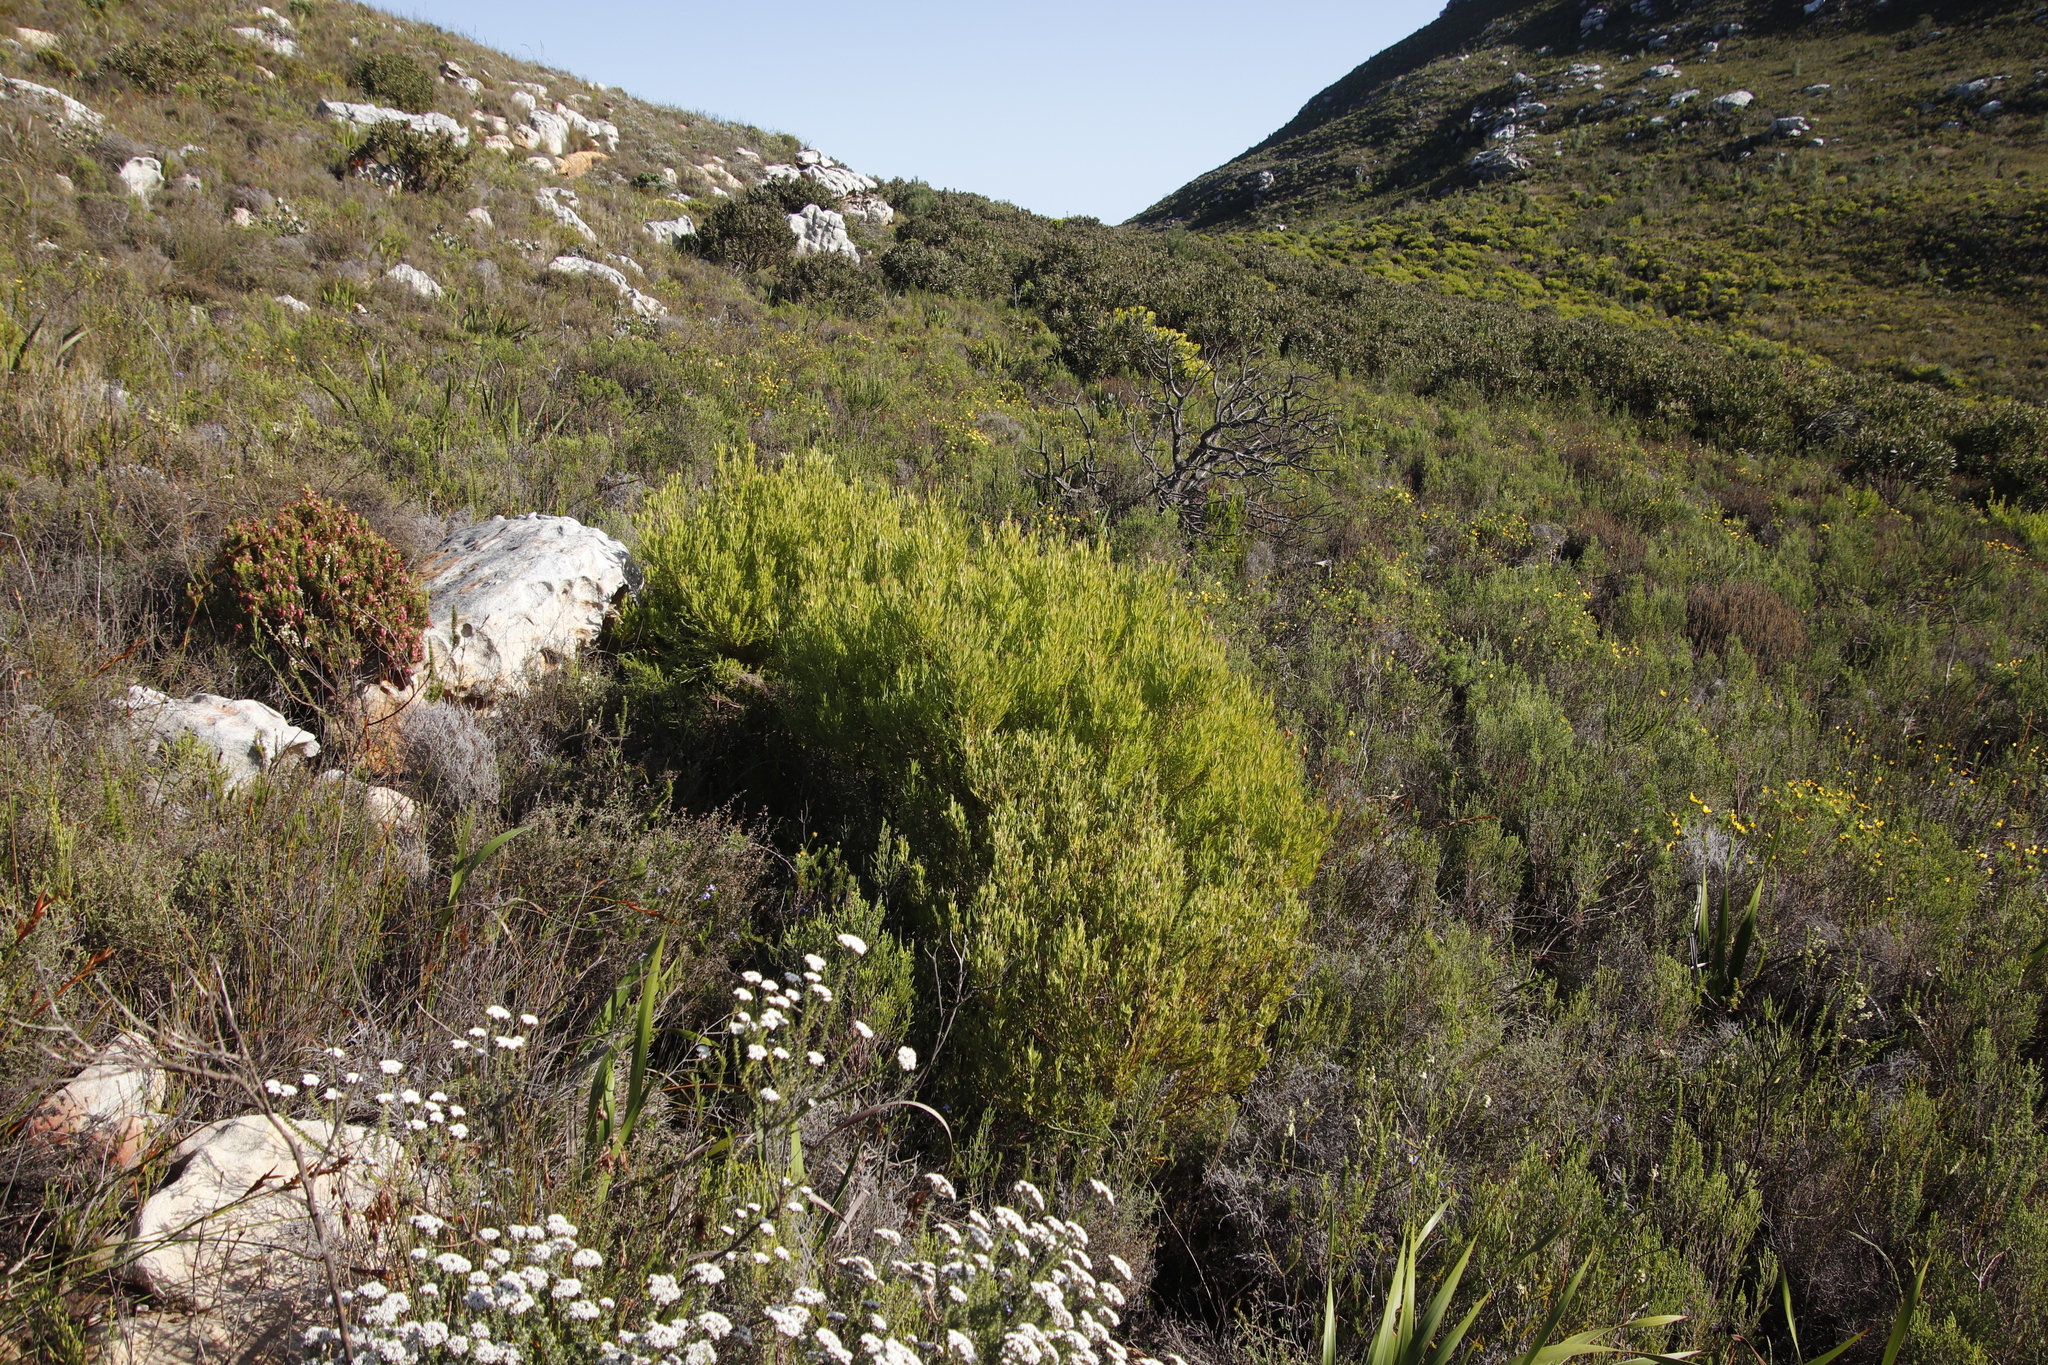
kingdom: Plantae
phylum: Tracheophyta
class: Magnoliopsida
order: Proteales
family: Proteaceae
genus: Leucadendron
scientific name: Leucadendron xanthoconus
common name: Sickle-leaf conebush
